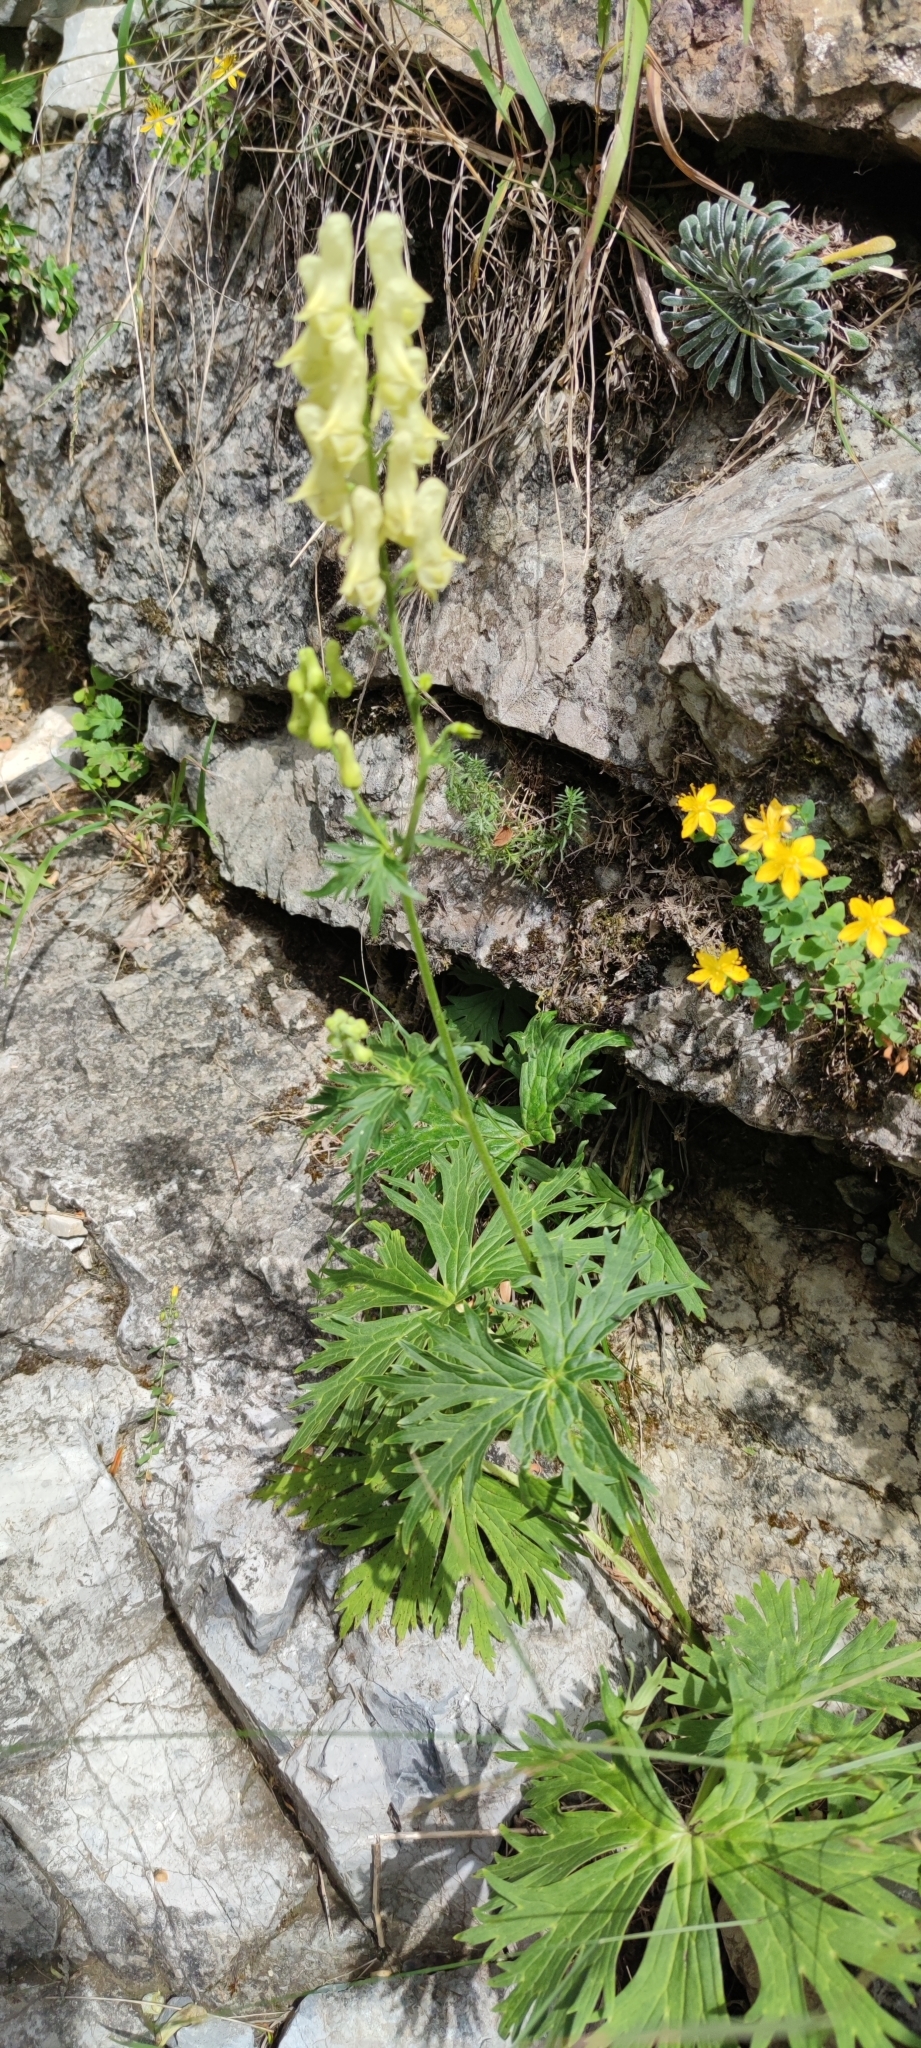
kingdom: Plantae
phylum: Tracheophyta
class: Magnoliopsida
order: Ranunculales
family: Ranunculaceae
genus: Aconitum
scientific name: Aconitum lycoctonum
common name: Wolf's-bane
